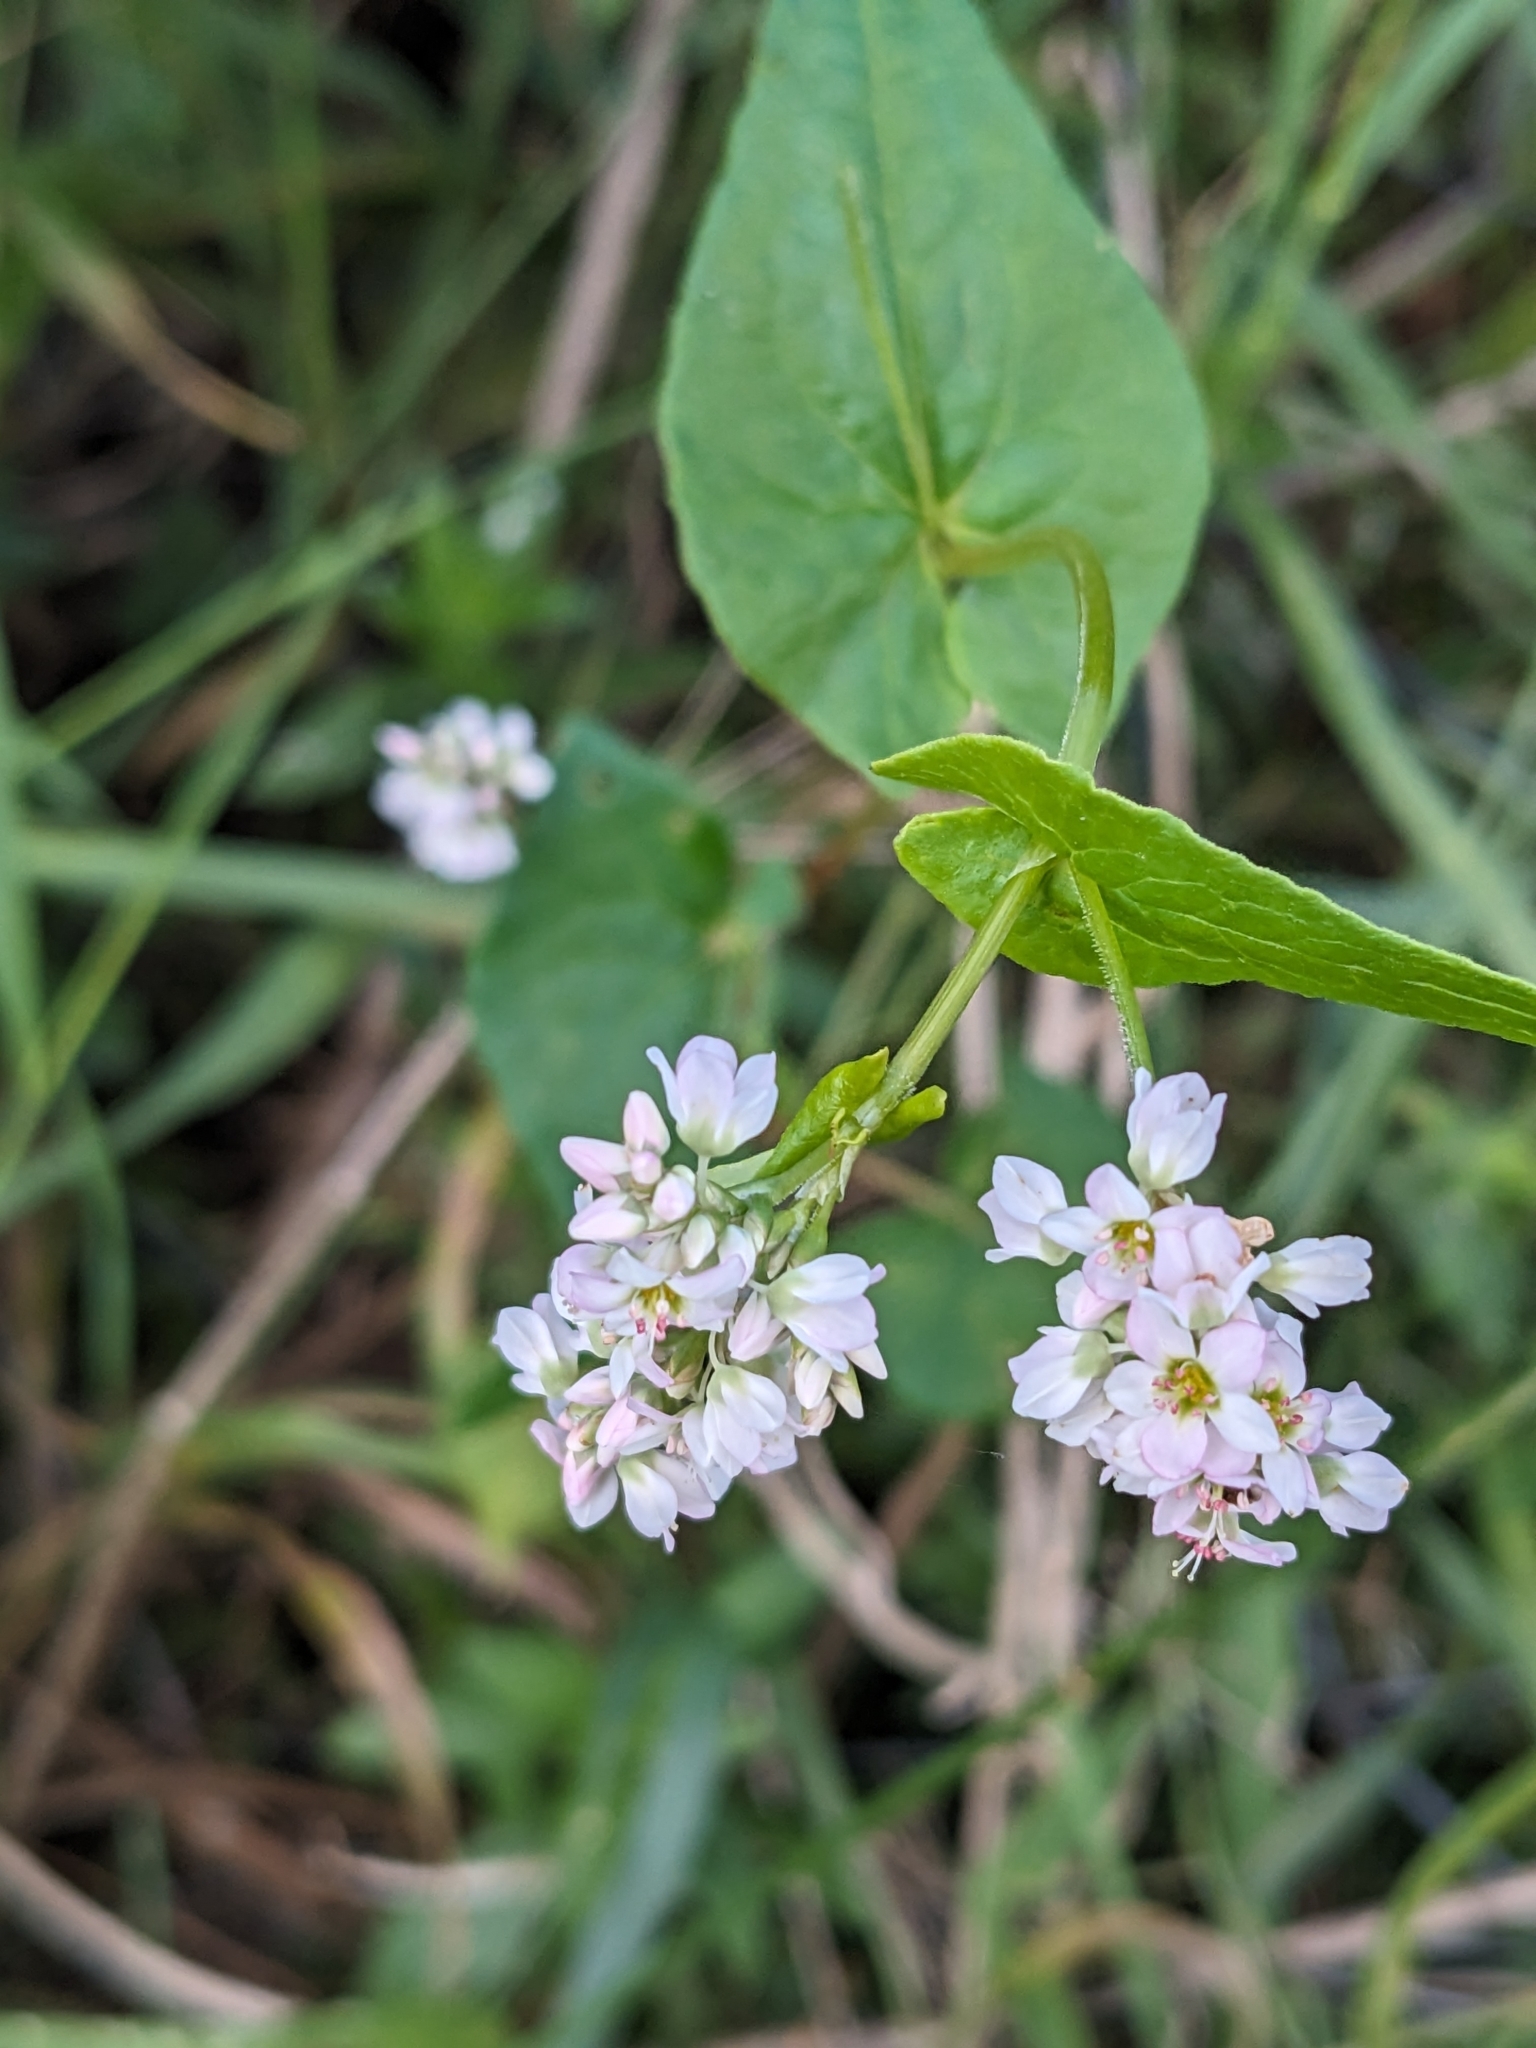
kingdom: Plantae
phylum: Tracheophyta
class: Magnoliopsida
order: Caryophyllales
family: Polygonaceae
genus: Fagopyrum
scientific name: Fagopyrum esculentum
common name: Buckwheat
